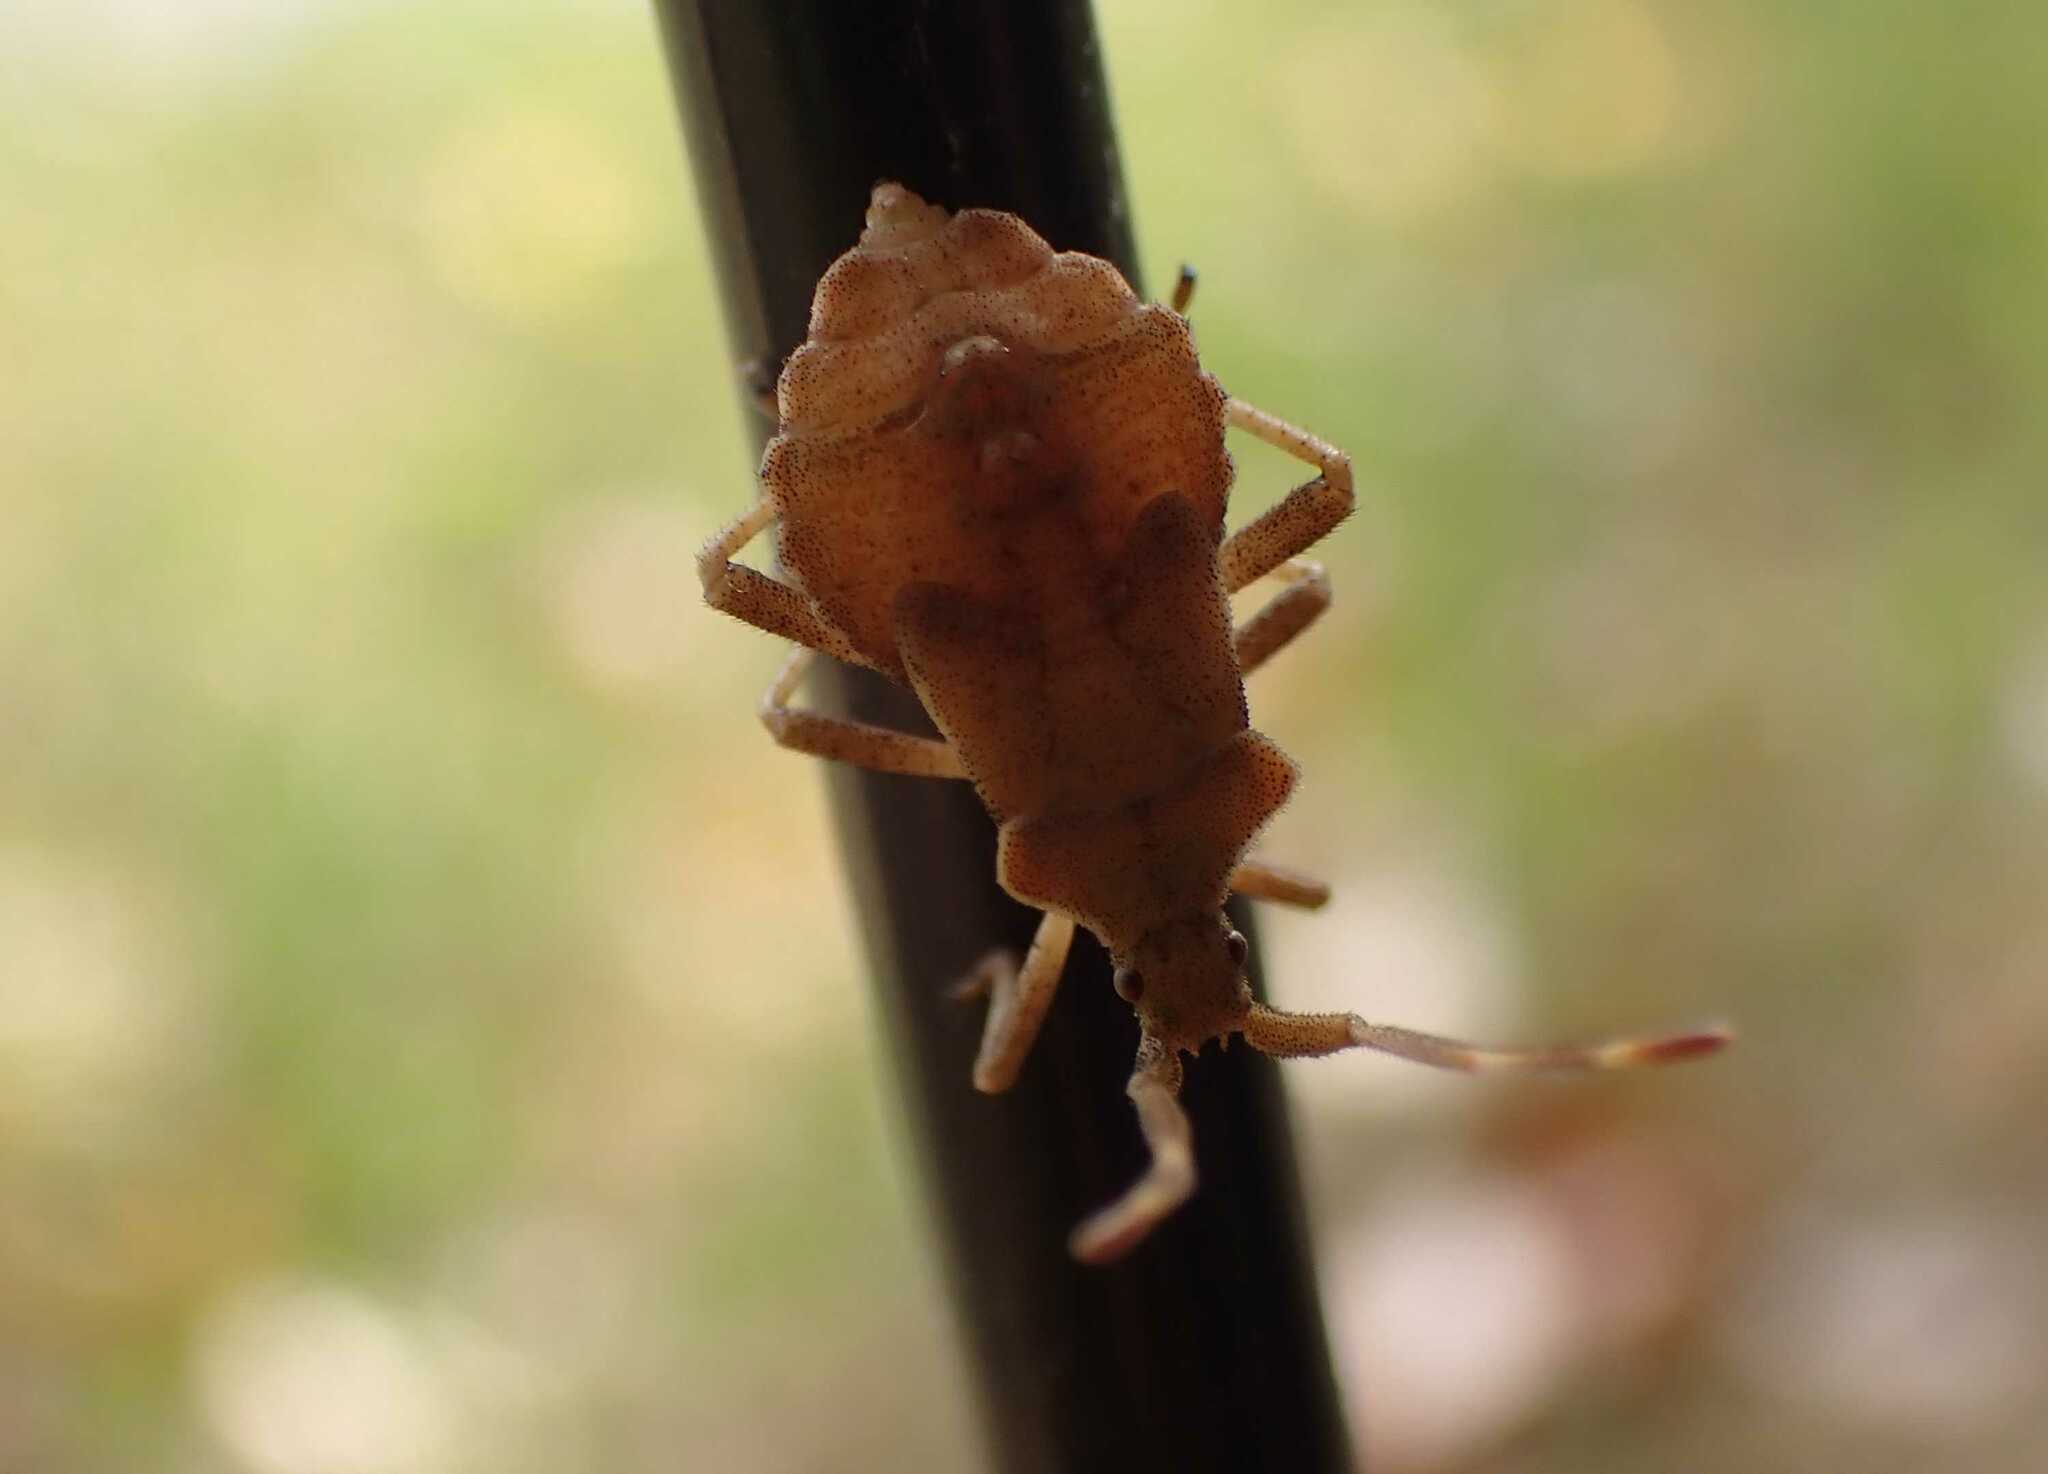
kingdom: Animalia
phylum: Arthropoda
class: Insecta
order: Hemiptera
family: Coreidae
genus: Coreus
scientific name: Coreus marginatus
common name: Dock bug
